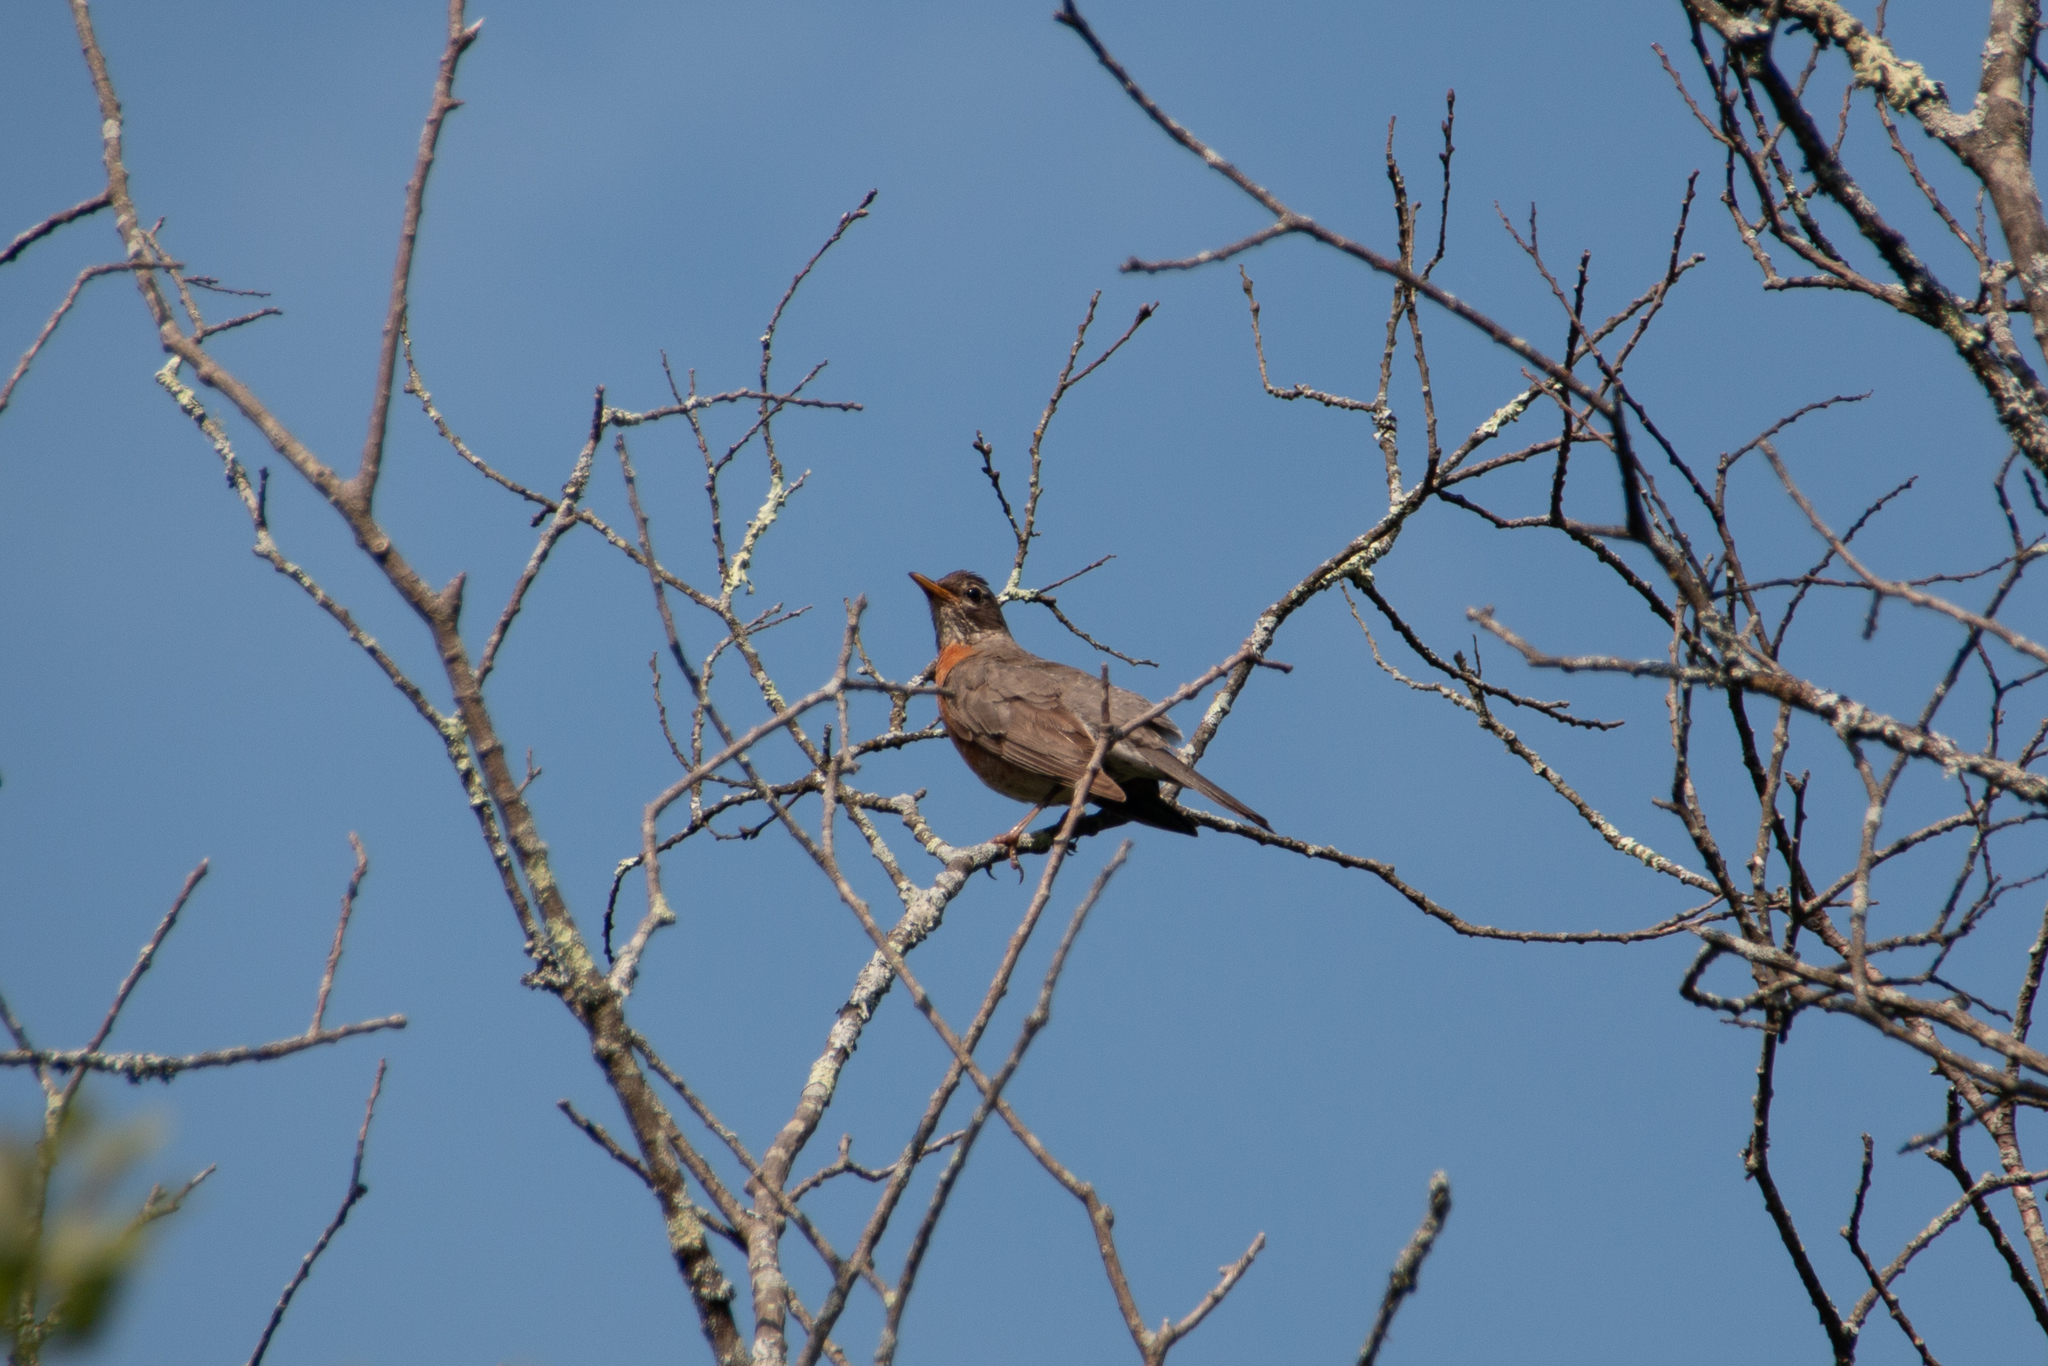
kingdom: Animalia
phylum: Chordata
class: Aves
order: Passeriformes
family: Turdidae
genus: Turdus
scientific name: Turdus migratorius
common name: American robin
